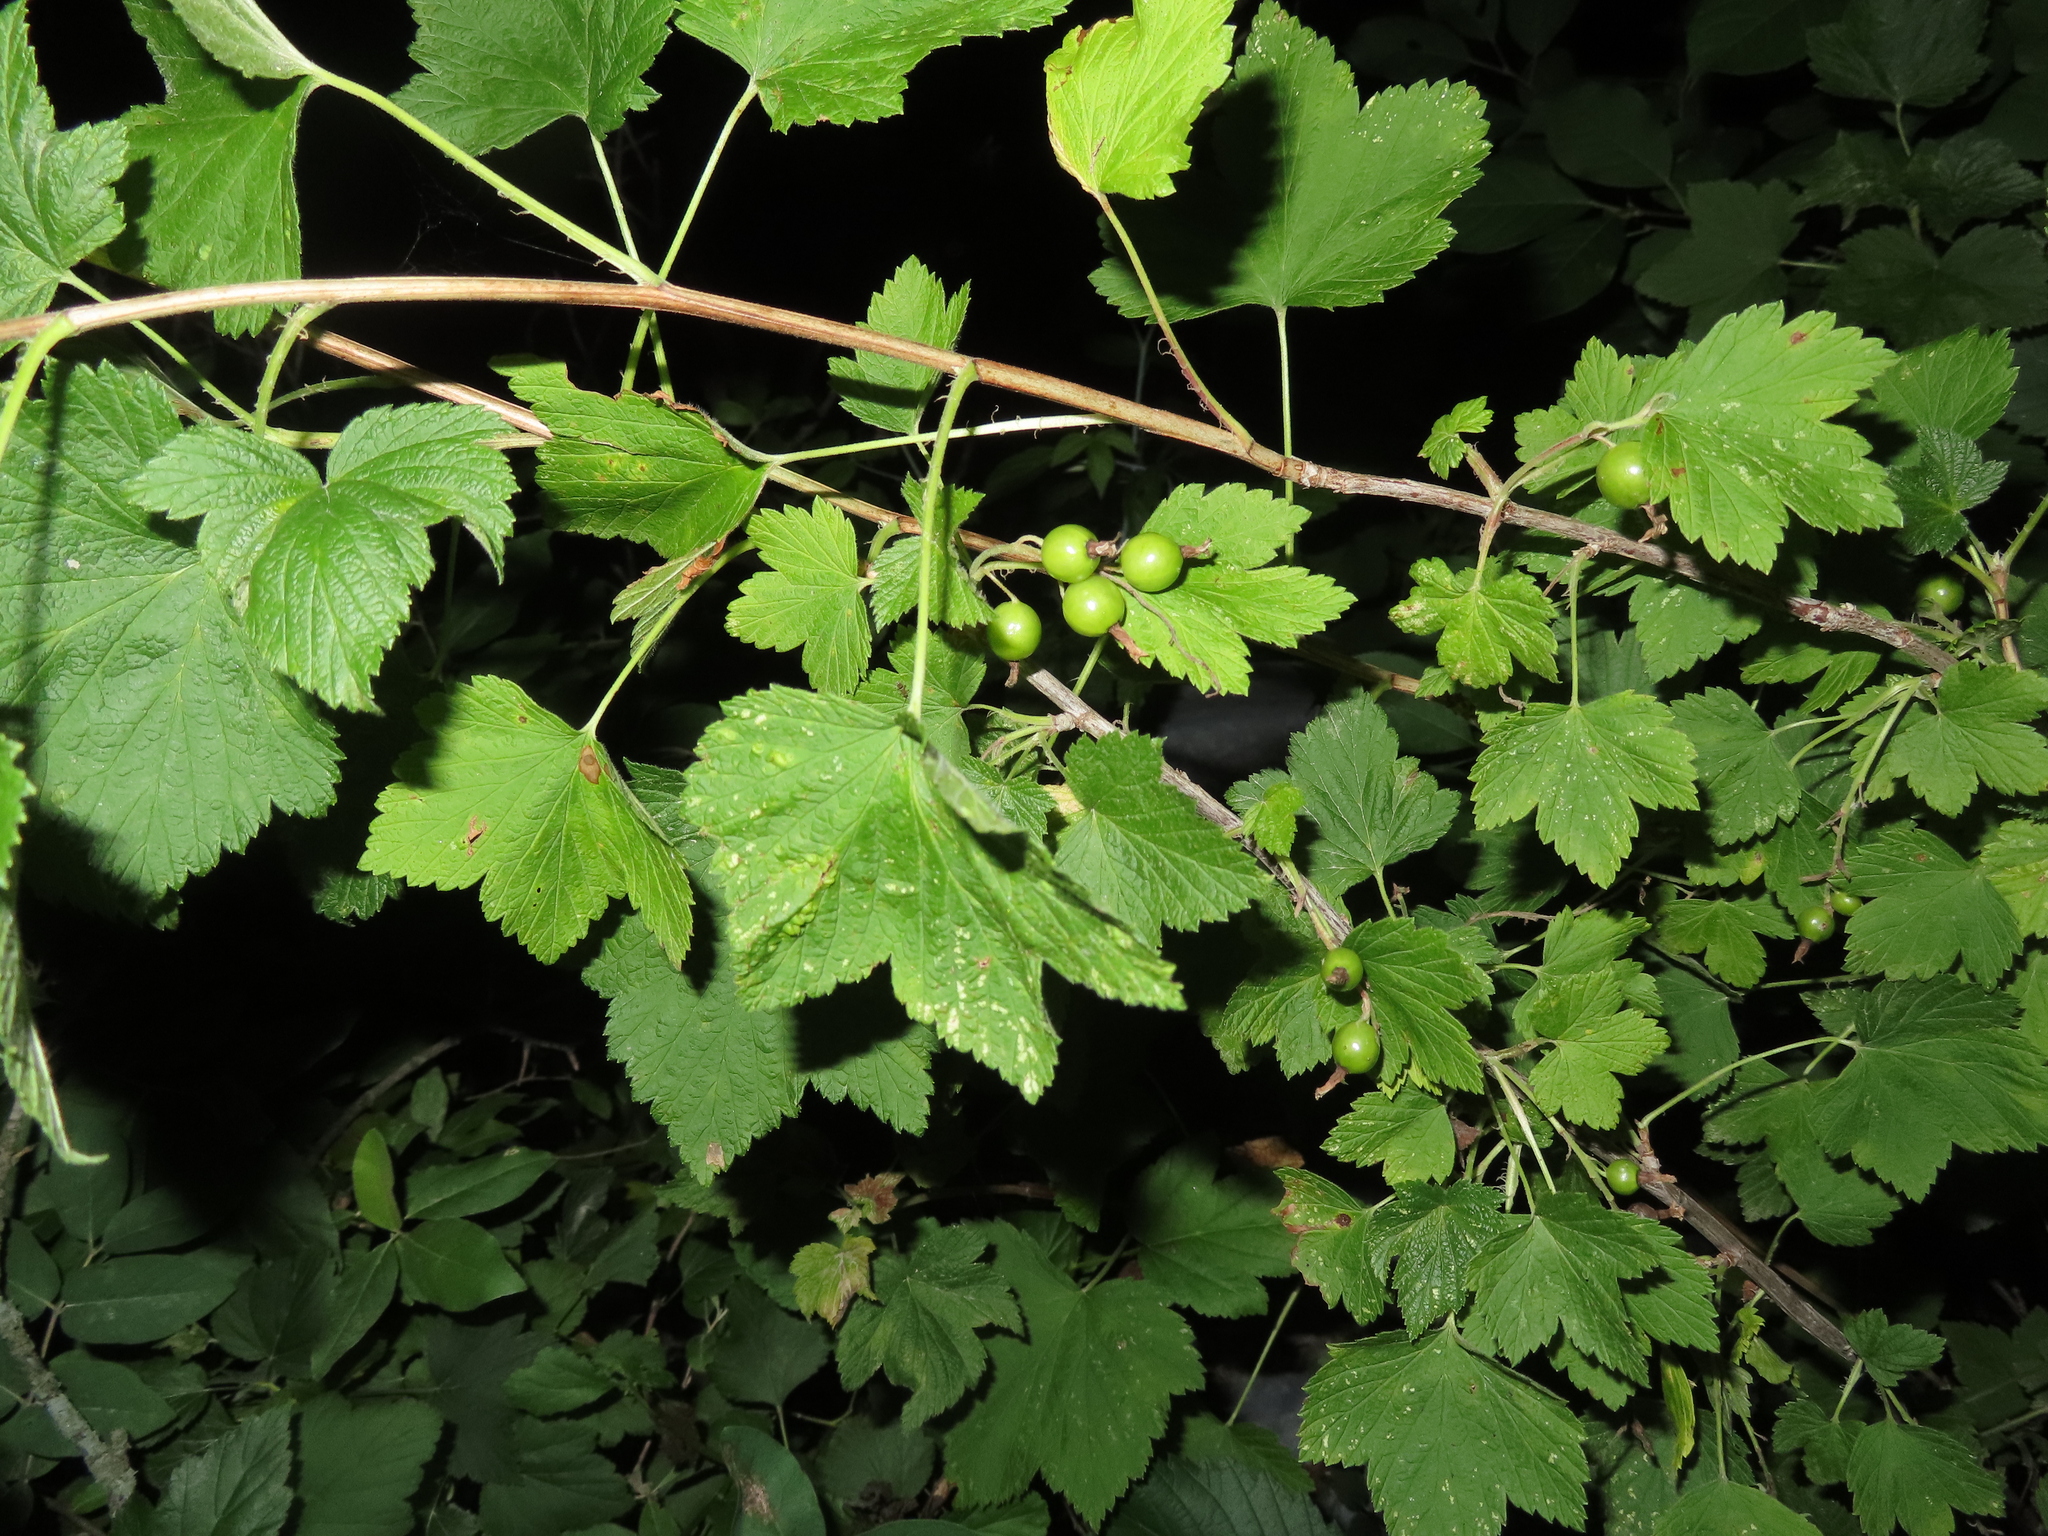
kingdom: Plantae
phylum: Tracheophyta
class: Magnoliopsida
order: Saxifragales
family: Grossulariaceae
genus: Ribes
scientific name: Ribes americanum
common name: American black currant
